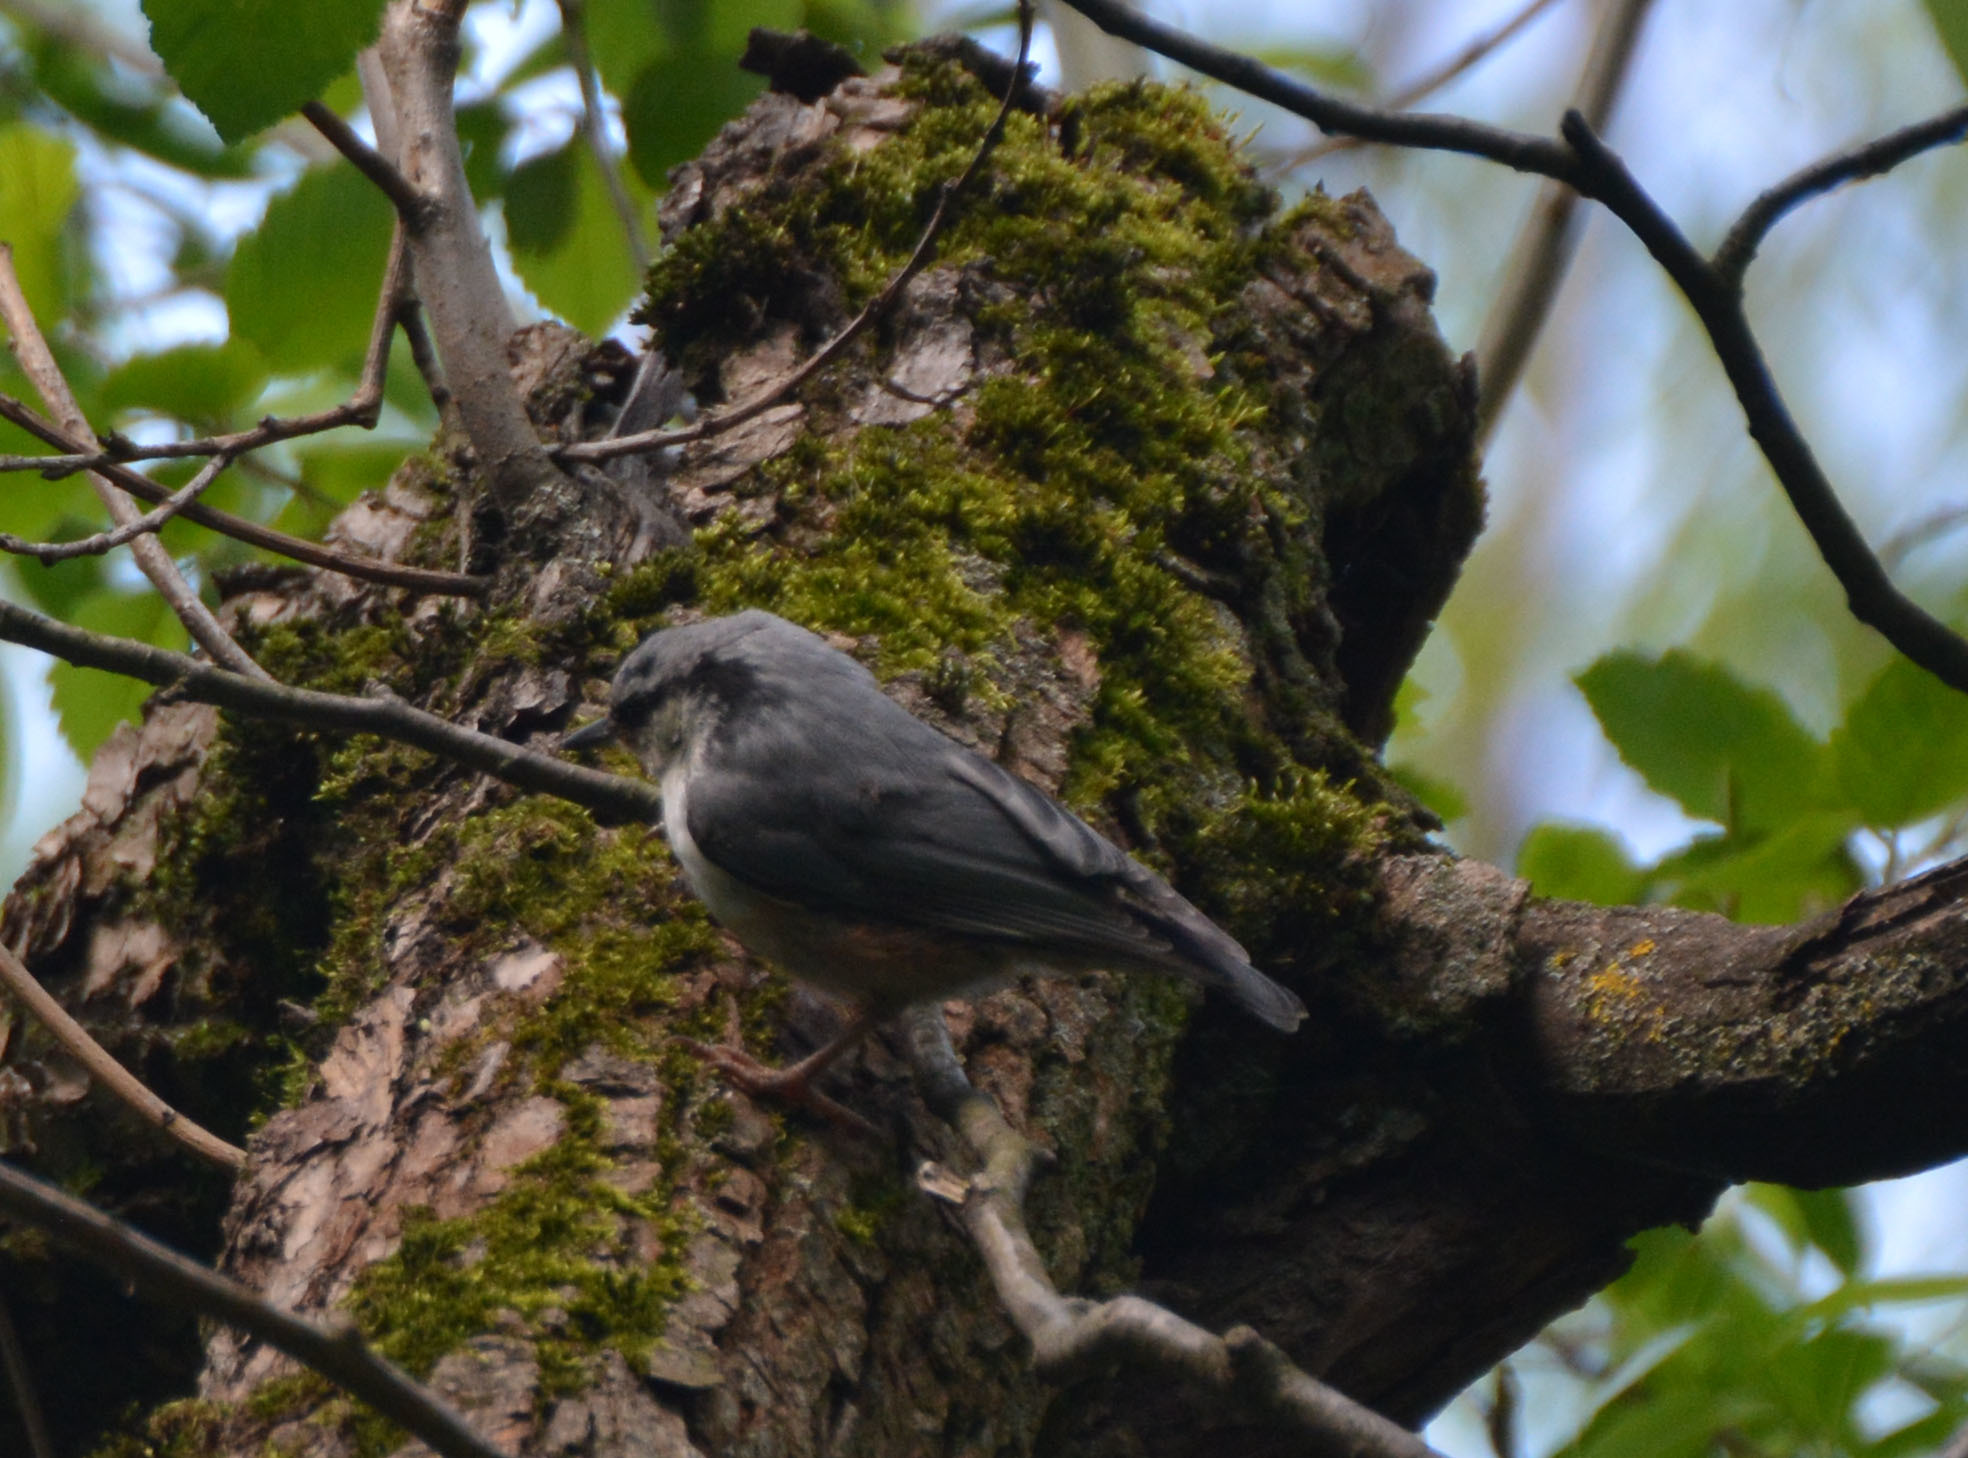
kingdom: Animalia
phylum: Chordata
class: Aves
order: Passeriformes
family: Sittidae
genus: Sitta
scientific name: Sitta europaea
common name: Eurasian nuthatch
